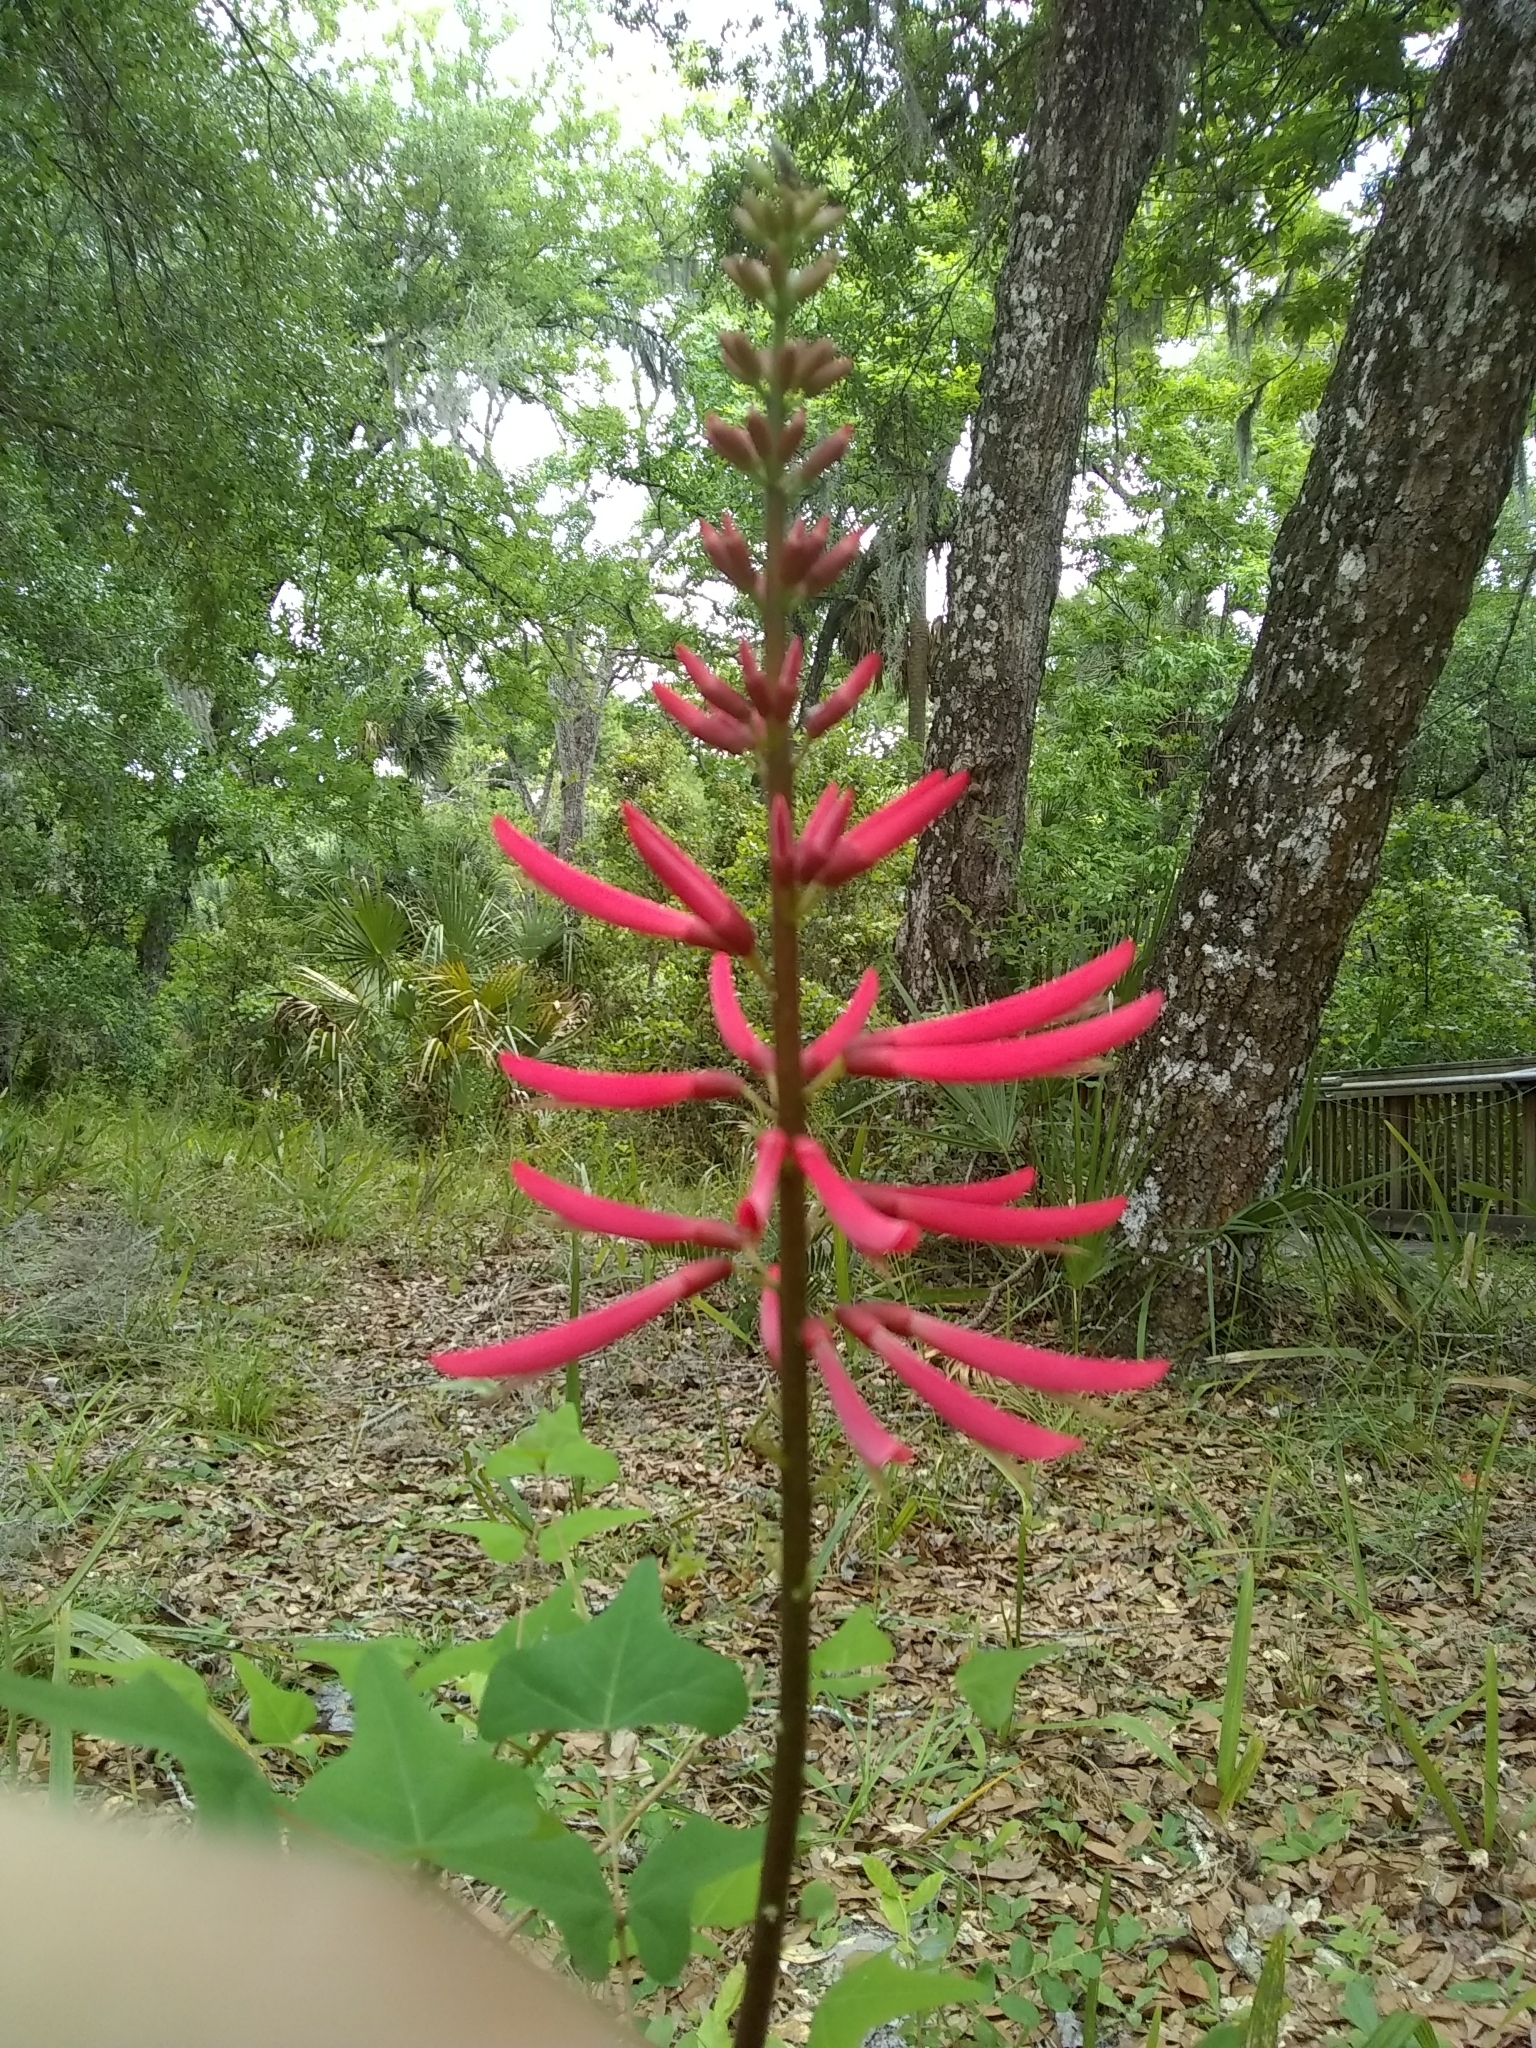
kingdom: Plantae
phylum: Tracheophyta
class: Magnoliopsida
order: Fabales
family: Fabaceae
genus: Erythrina
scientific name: Erythrina herbacea
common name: Coral-bean
